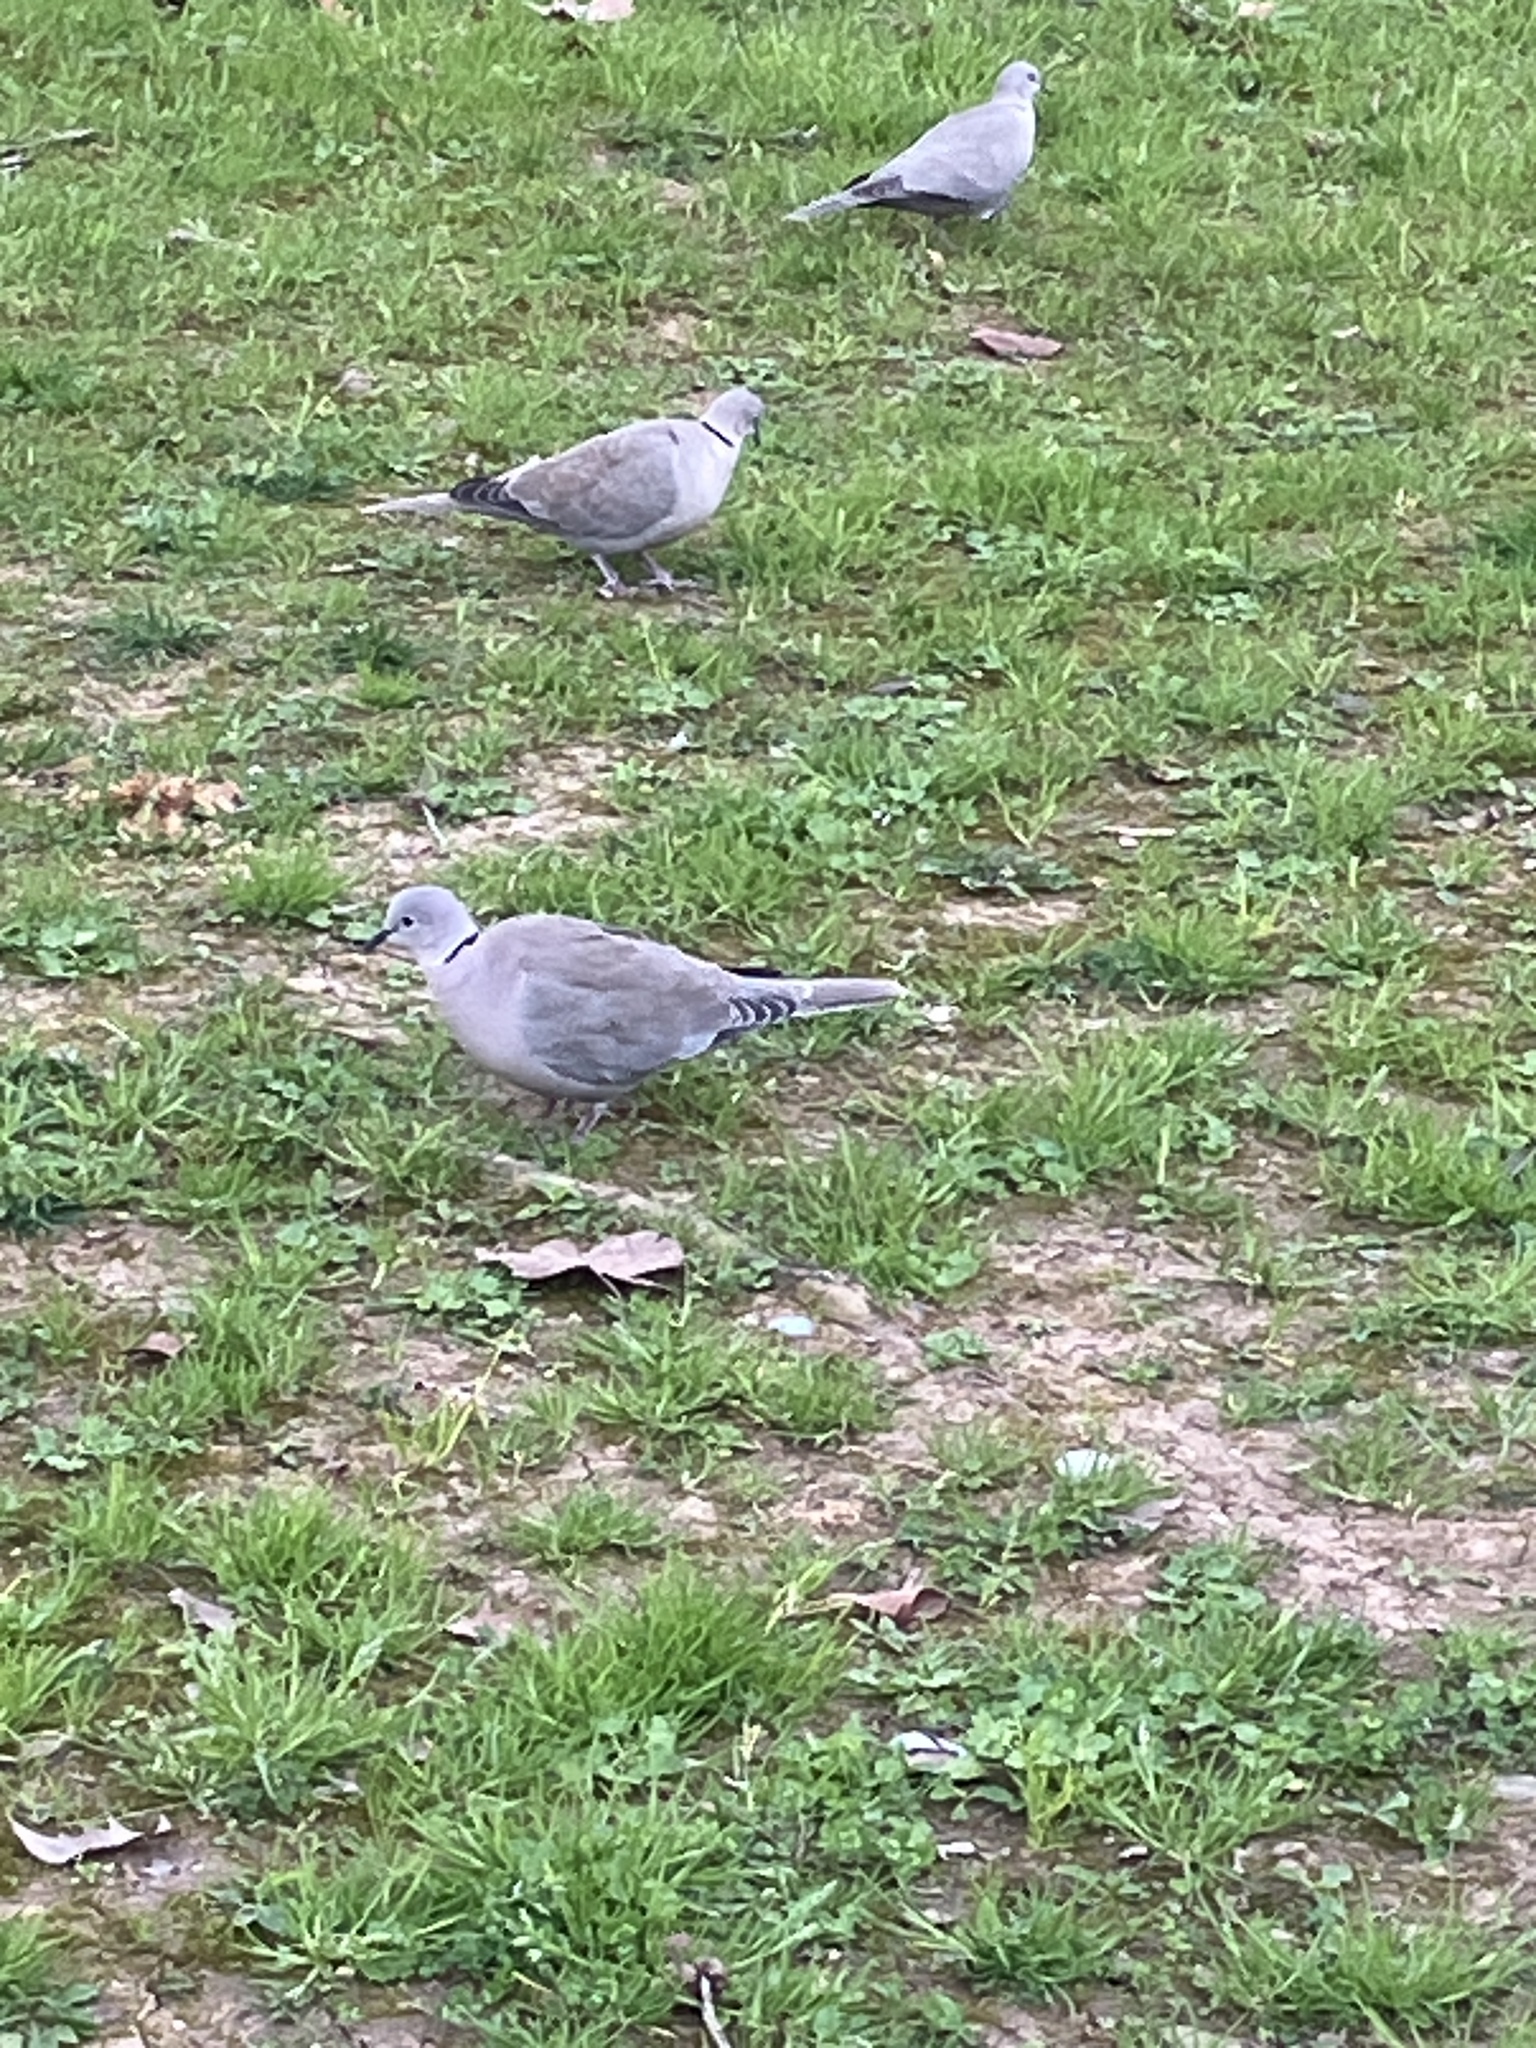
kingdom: Animalia
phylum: Chordata
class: Aves
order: Columbiformes
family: Columbidae
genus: Streptopelia
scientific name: Streptopelia decaocto
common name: Eurasian collared dove
